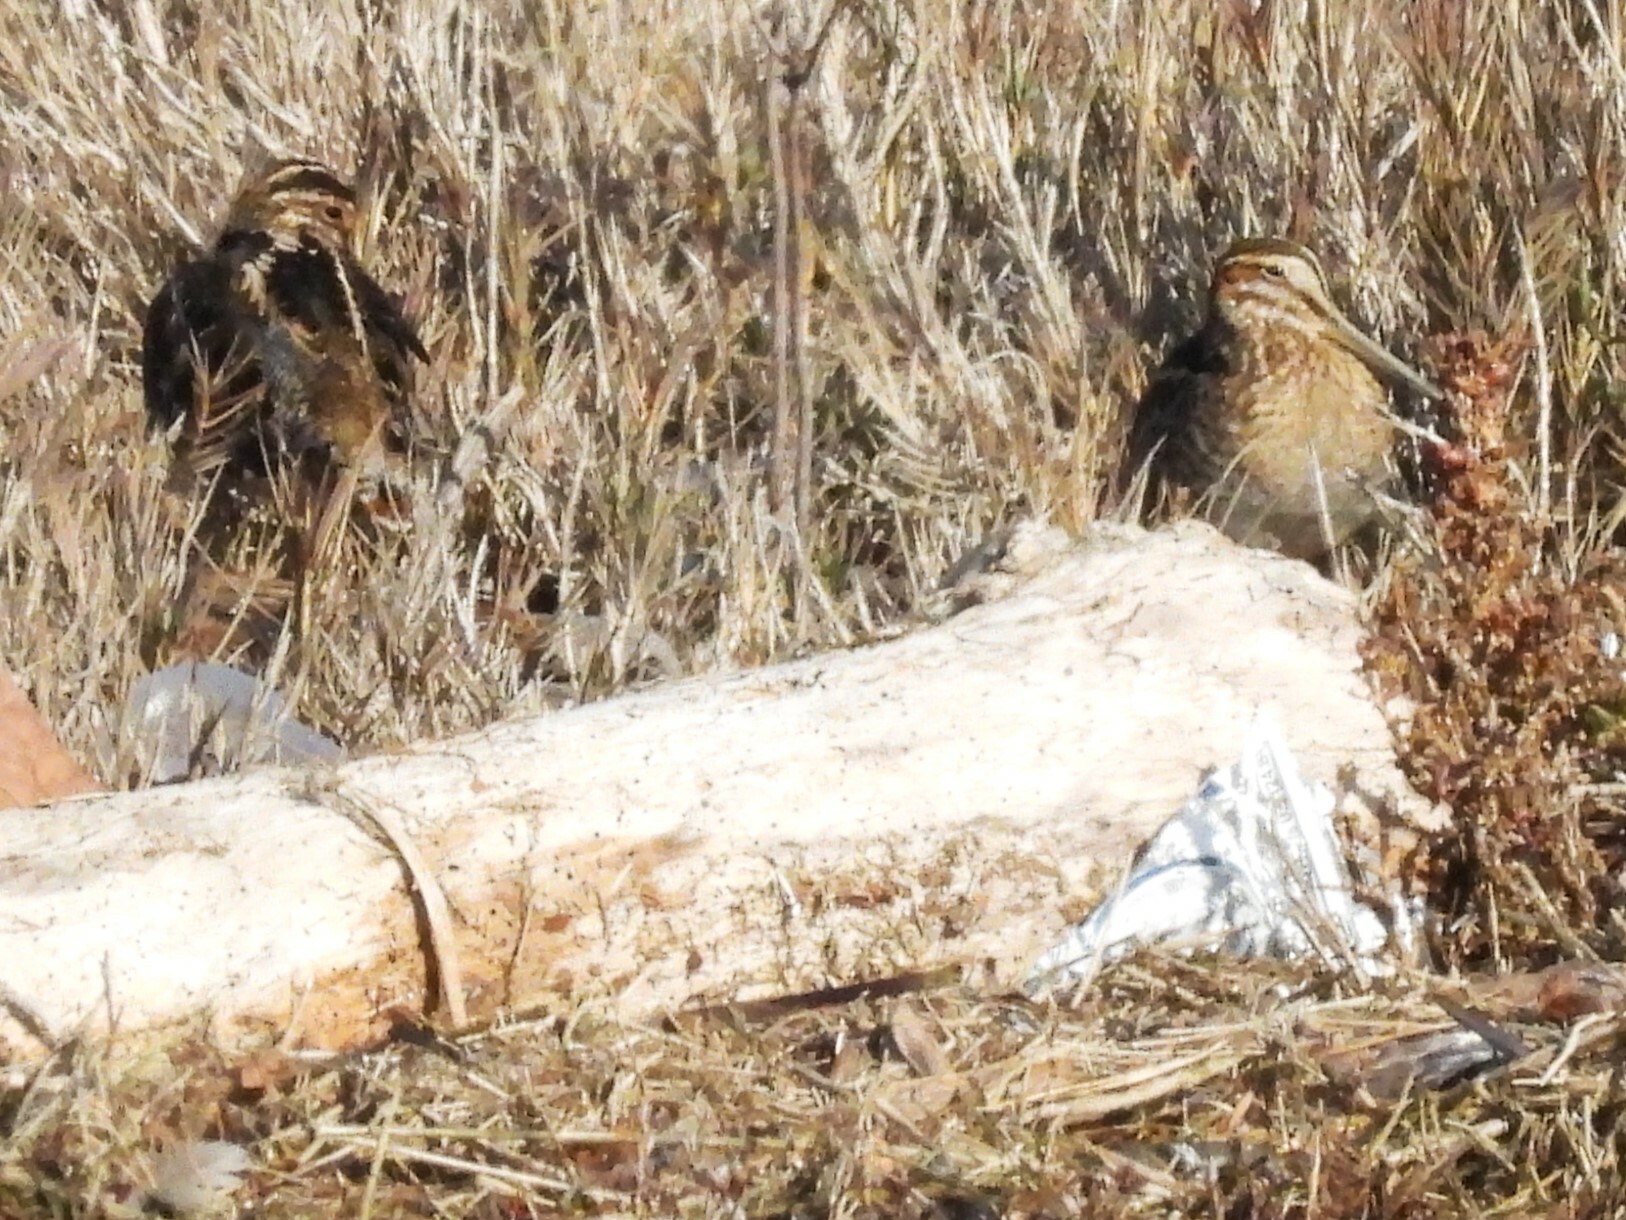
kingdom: Animalia
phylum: Chordata
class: Aves
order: Charadriiformes
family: Scolopacidae
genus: Gallinago
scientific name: Gallinago delicata
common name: Wilson's snipe
